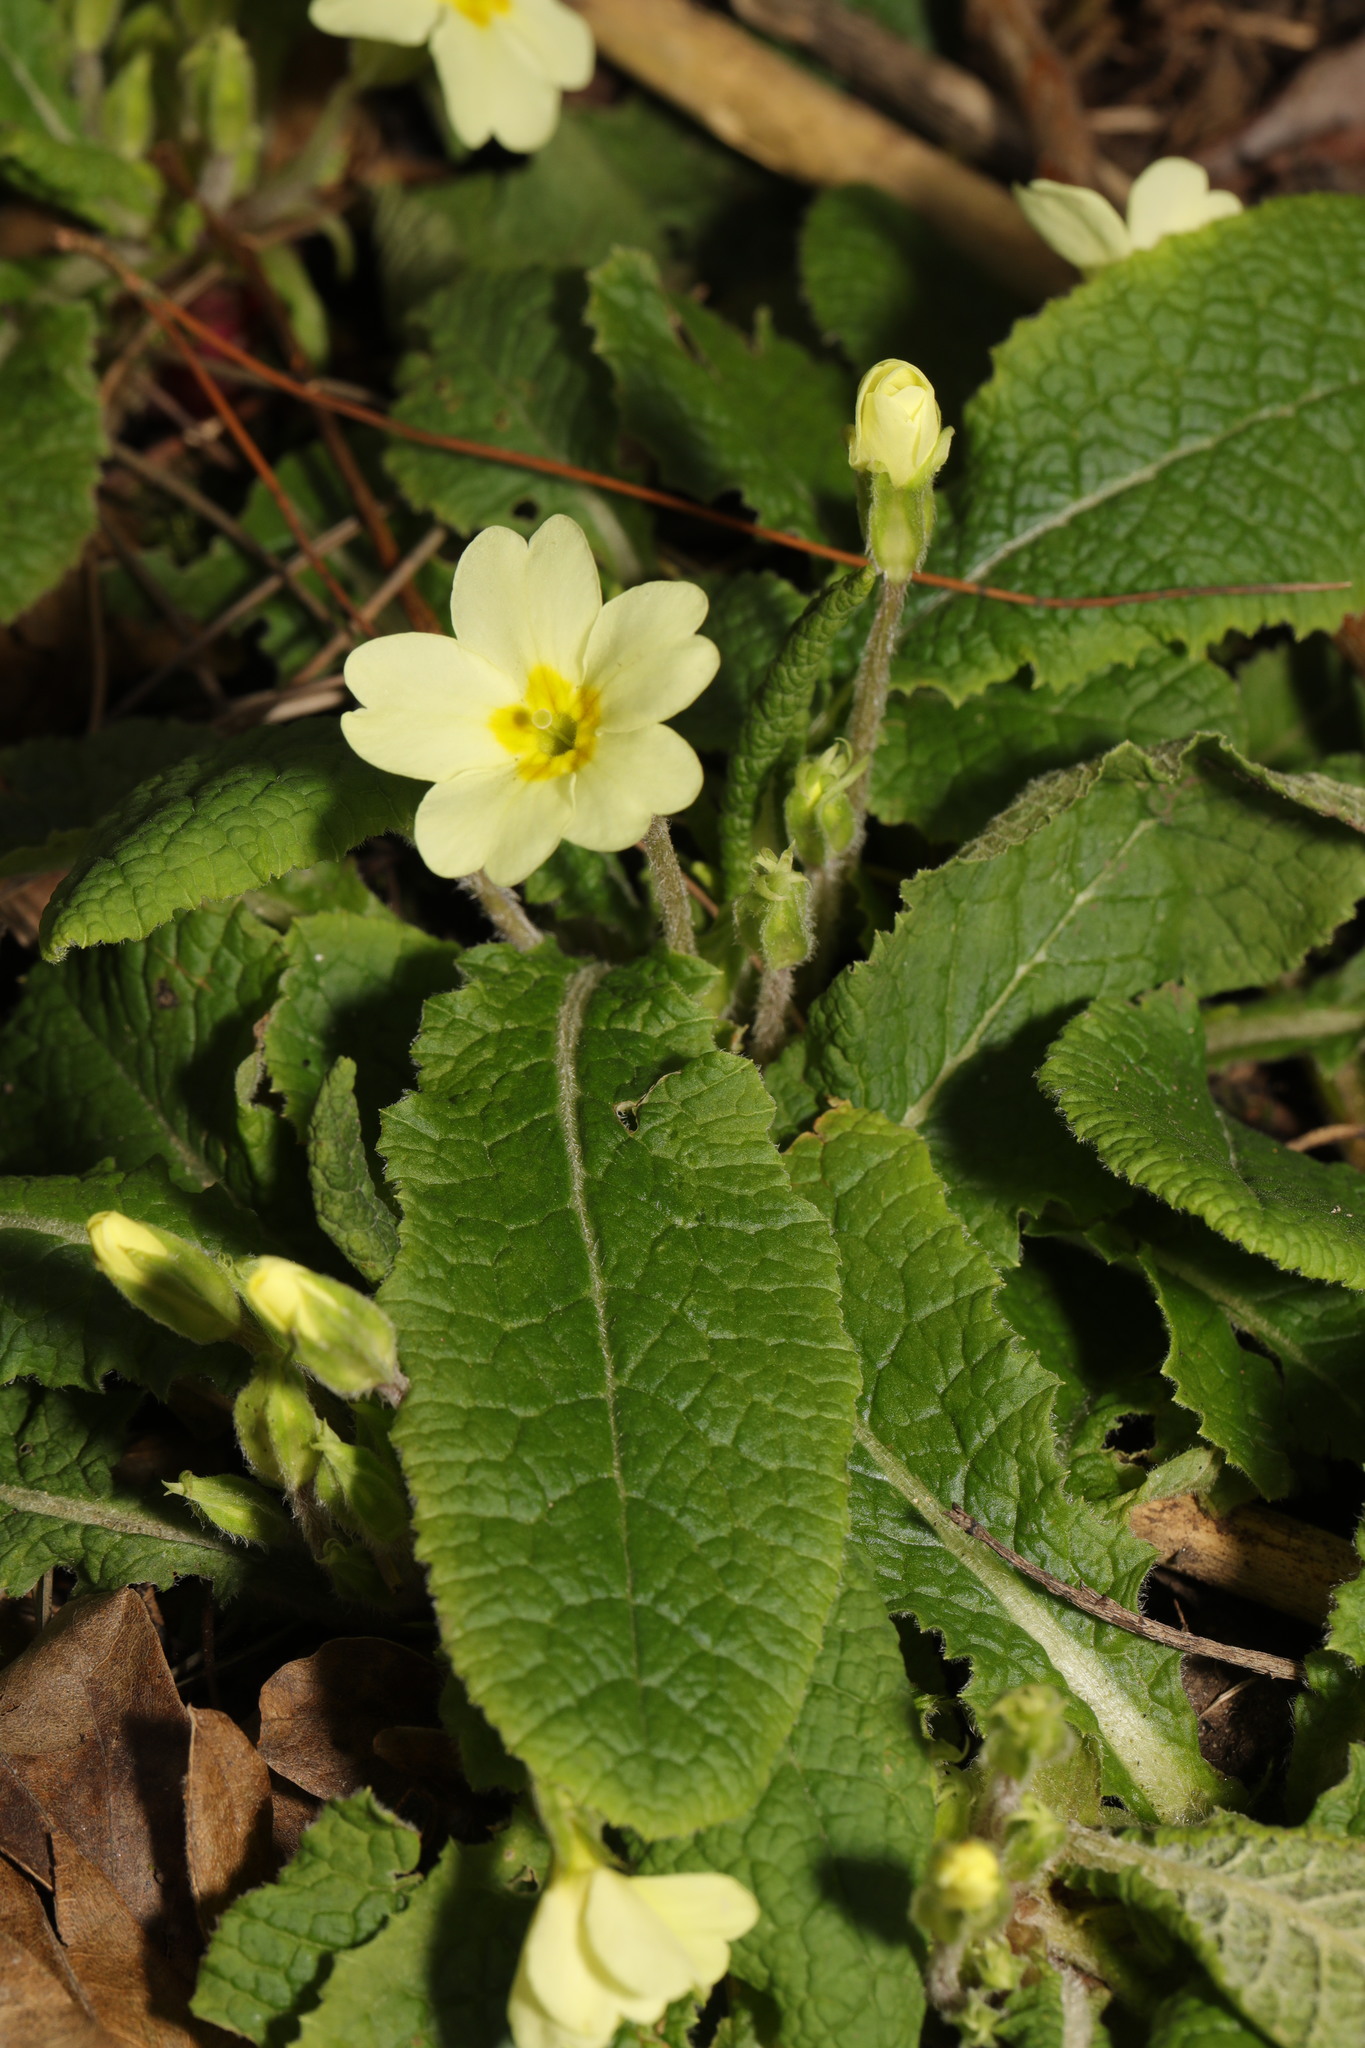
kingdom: Plantae
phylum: Tracheophyta
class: Magnoliopsida
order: Ericales
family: Primulaceae
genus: Primula
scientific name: Primula vulgaris
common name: Primrose
